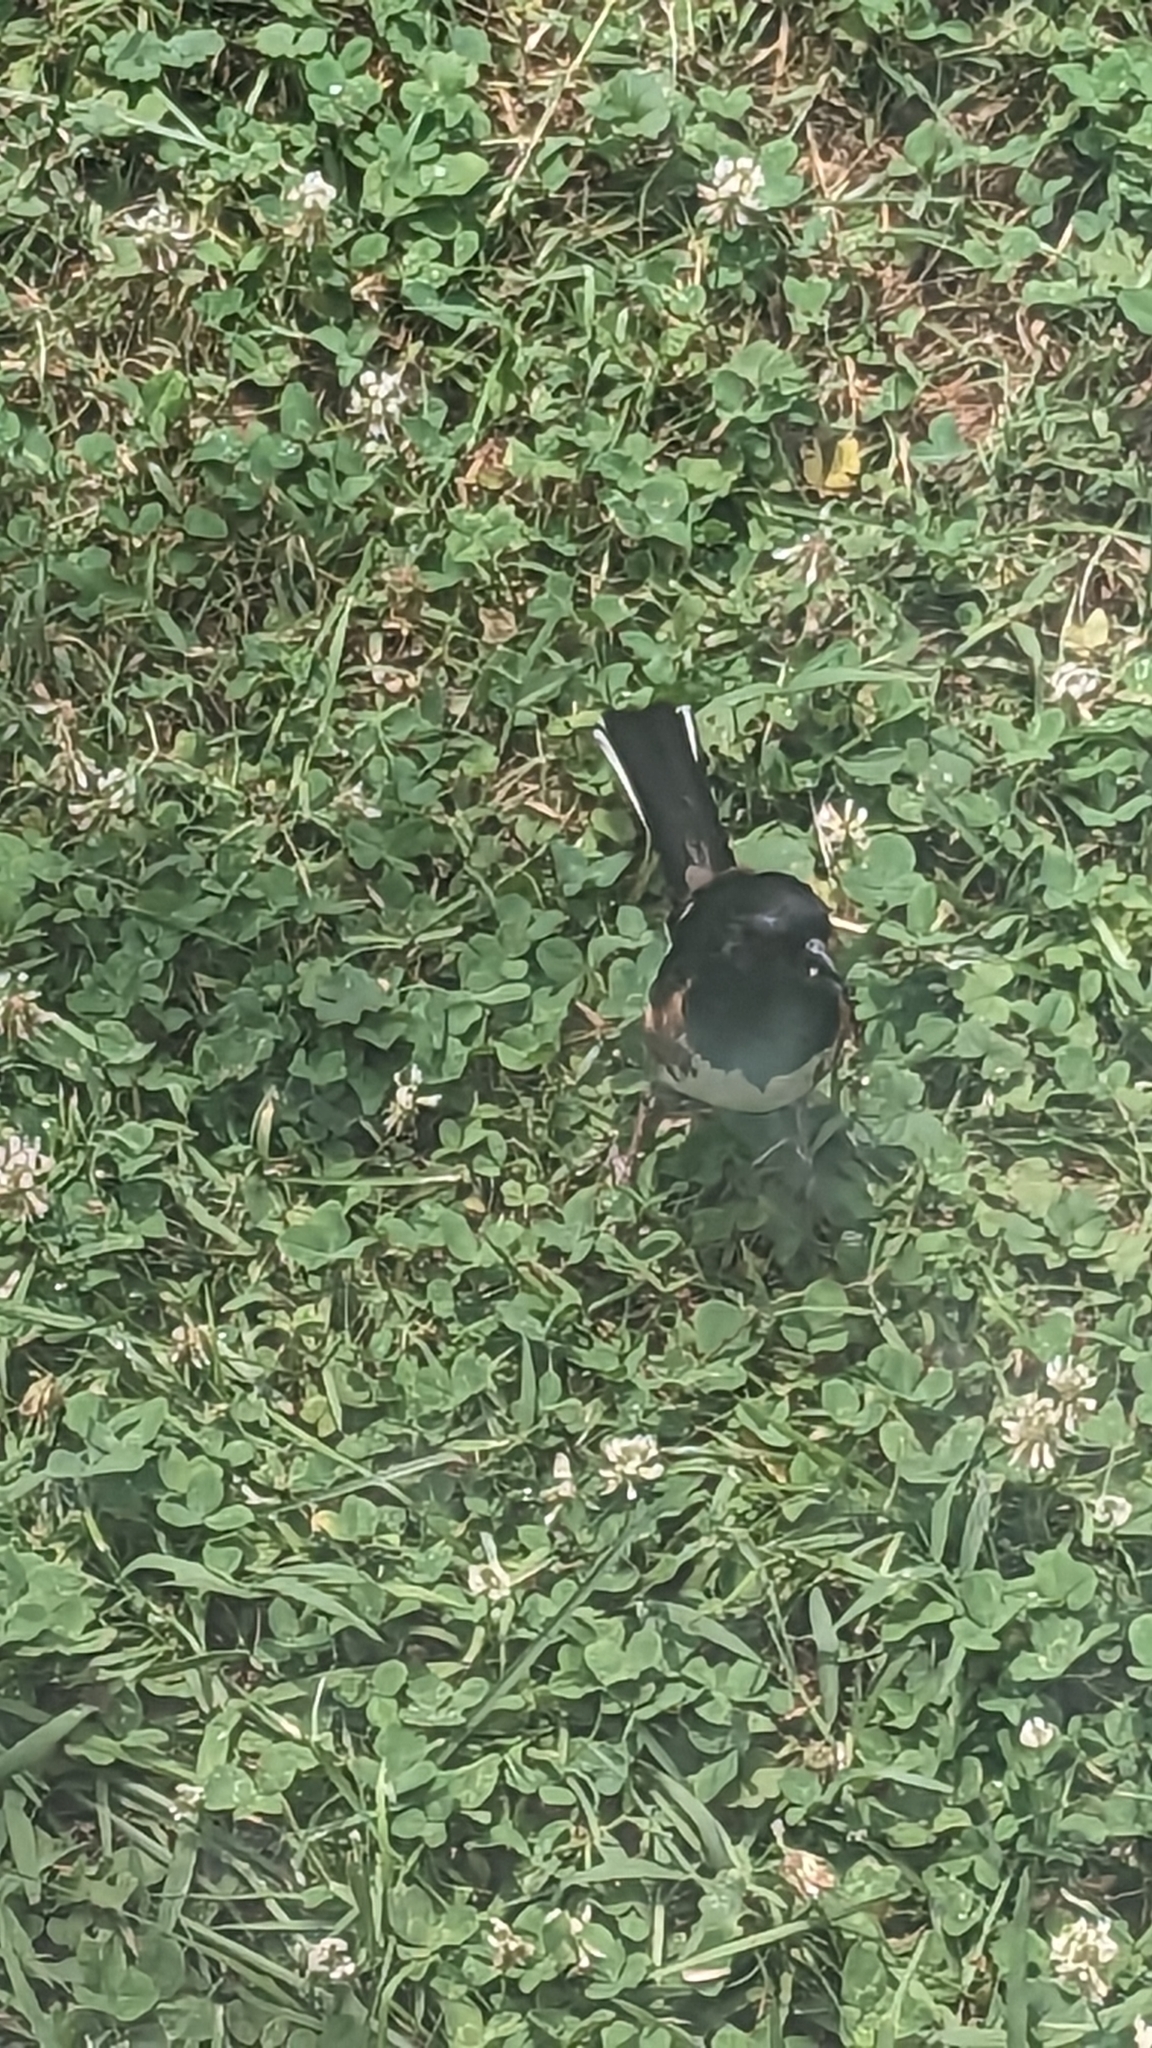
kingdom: Animalia
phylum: Chordata
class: Aves
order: Passeriformes
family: Passerellidae
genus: Pipilo
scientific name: Pipilo erythrophthalmus
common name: Eastern towhee
